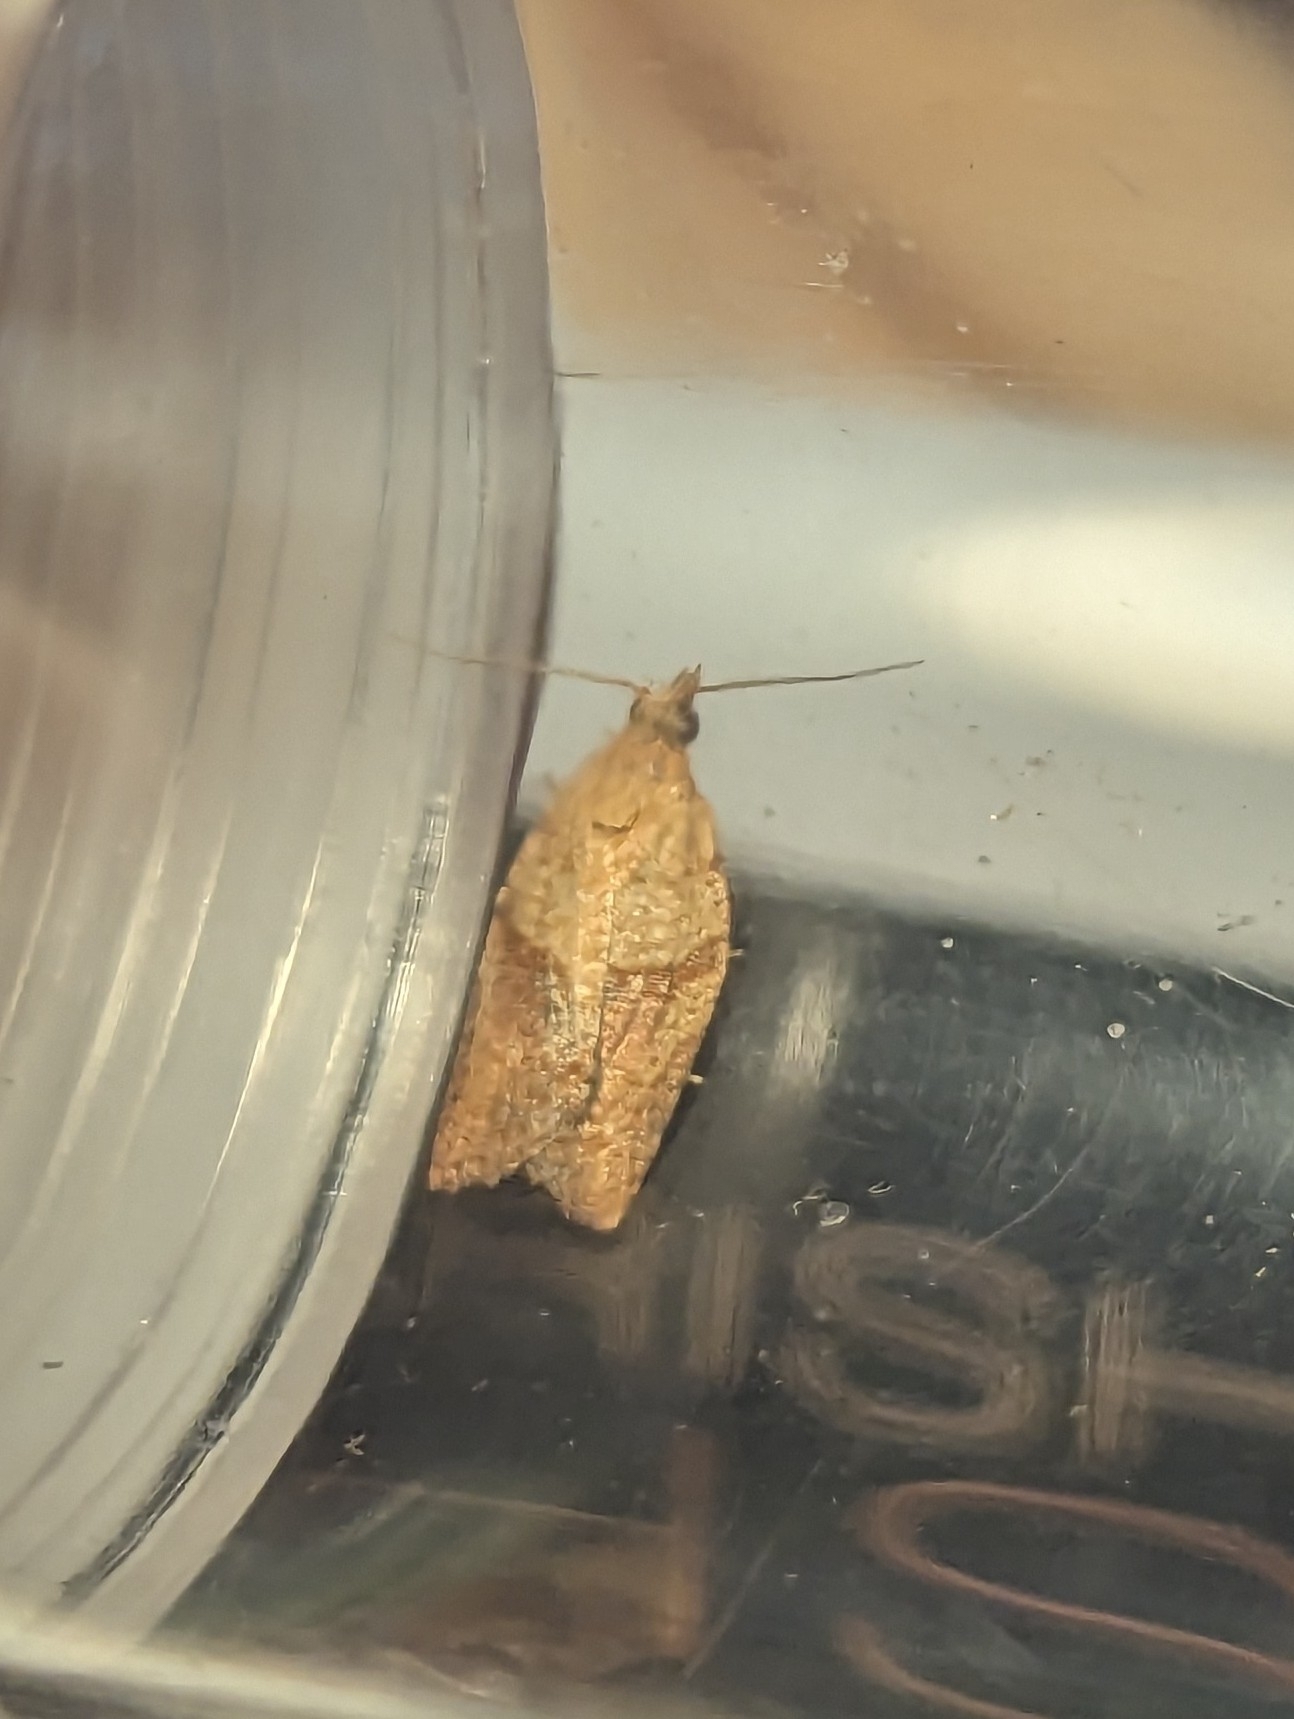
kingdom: Animalia
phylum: Arthropoda
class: Insecta
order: Lepidoptera
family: Tortricidae
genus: Epiphyas
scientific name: Epiphyas postvittana
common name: Light brown apple moth
